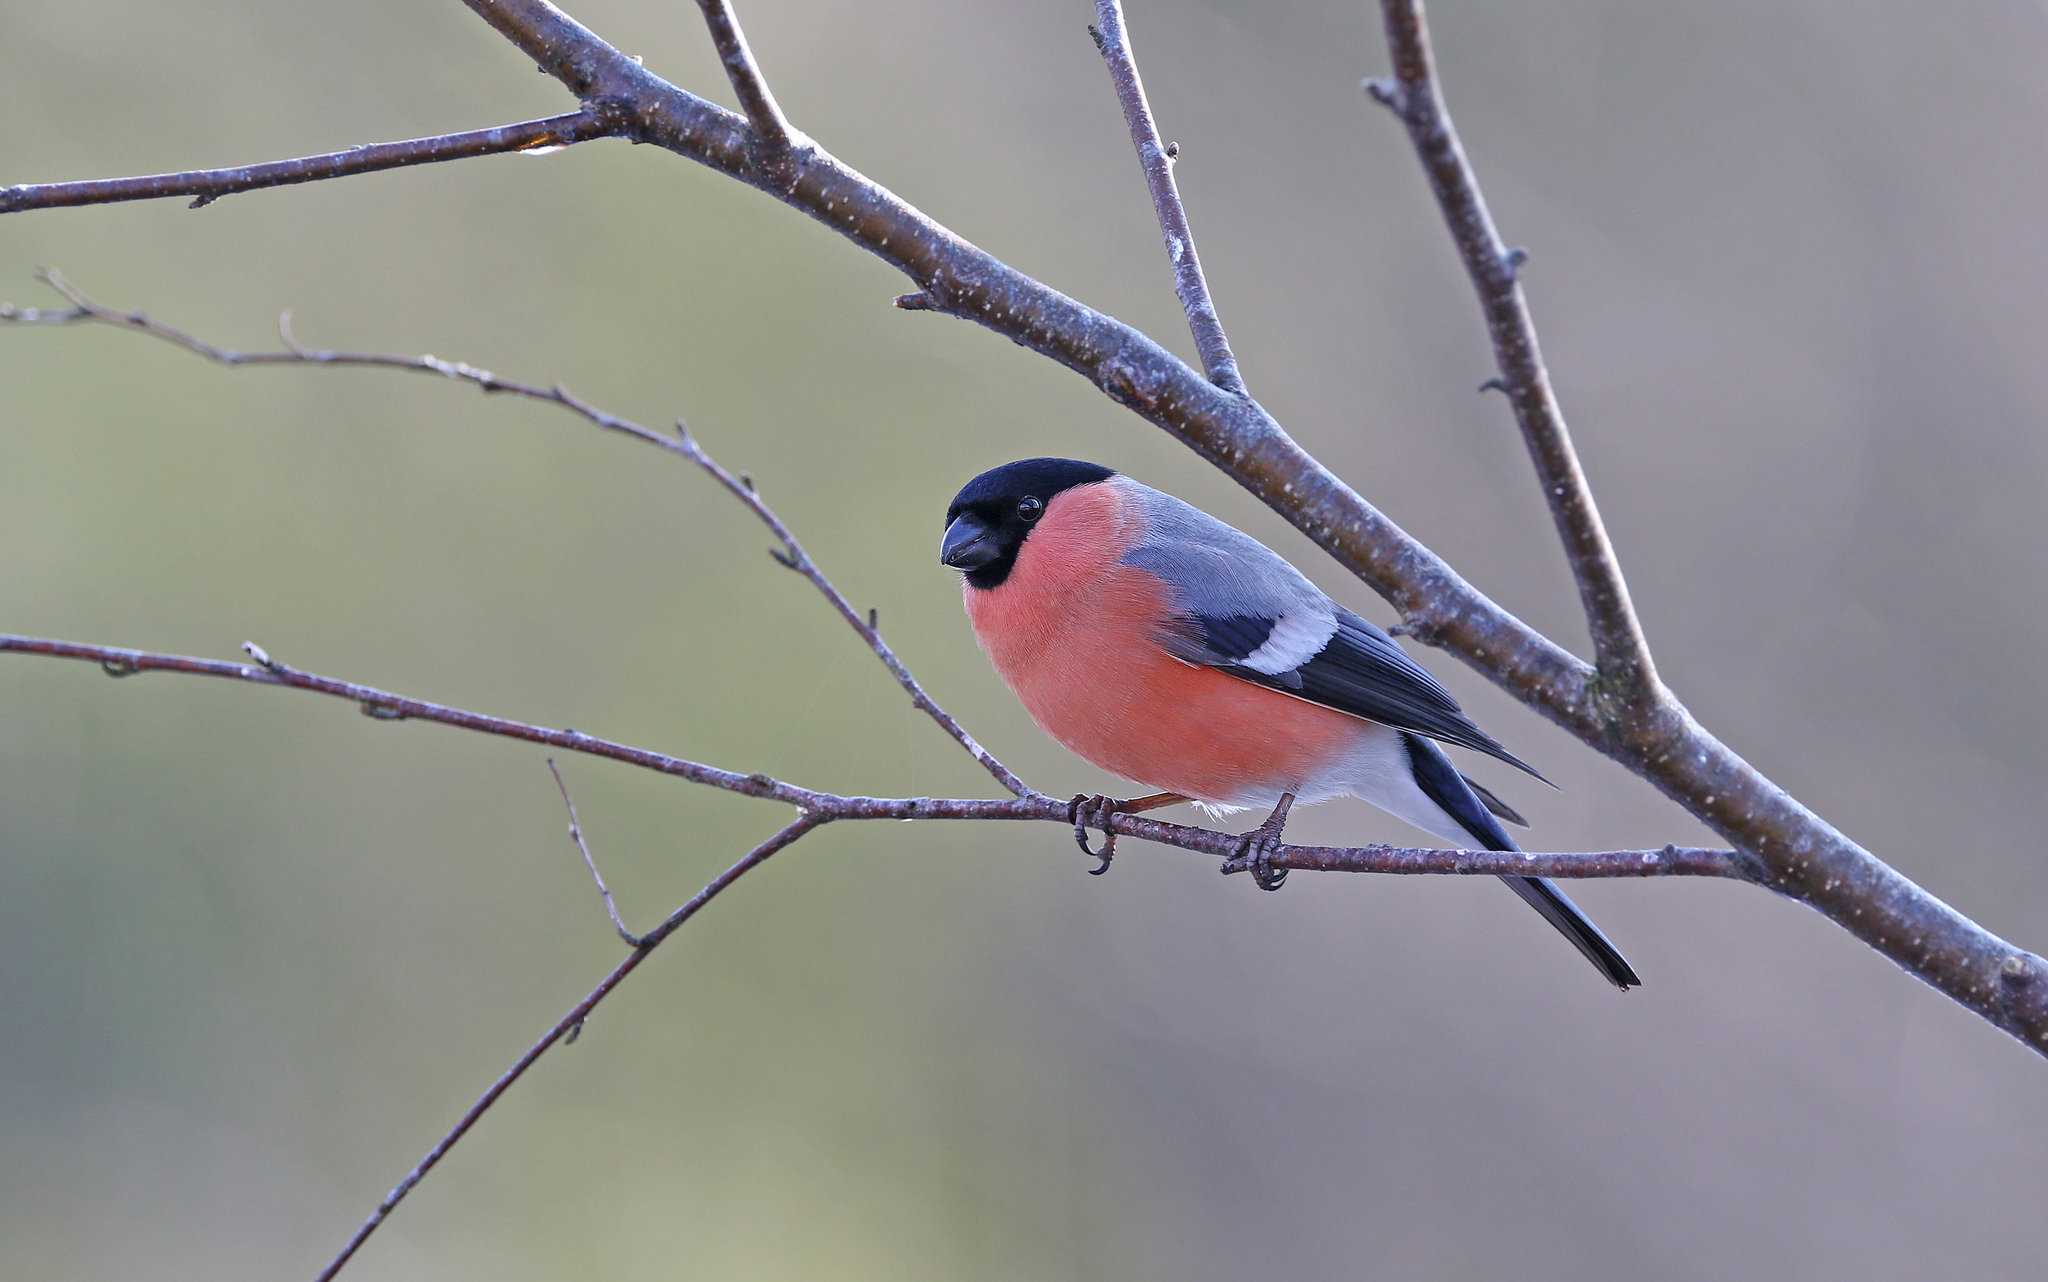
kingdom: Animalia
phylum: Chordata
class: Aves
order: Passeriformes
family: Fringillidae
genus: Pyrrhula
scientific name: Pyrrhula pyrrhula
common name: Eurasian bullfinch
